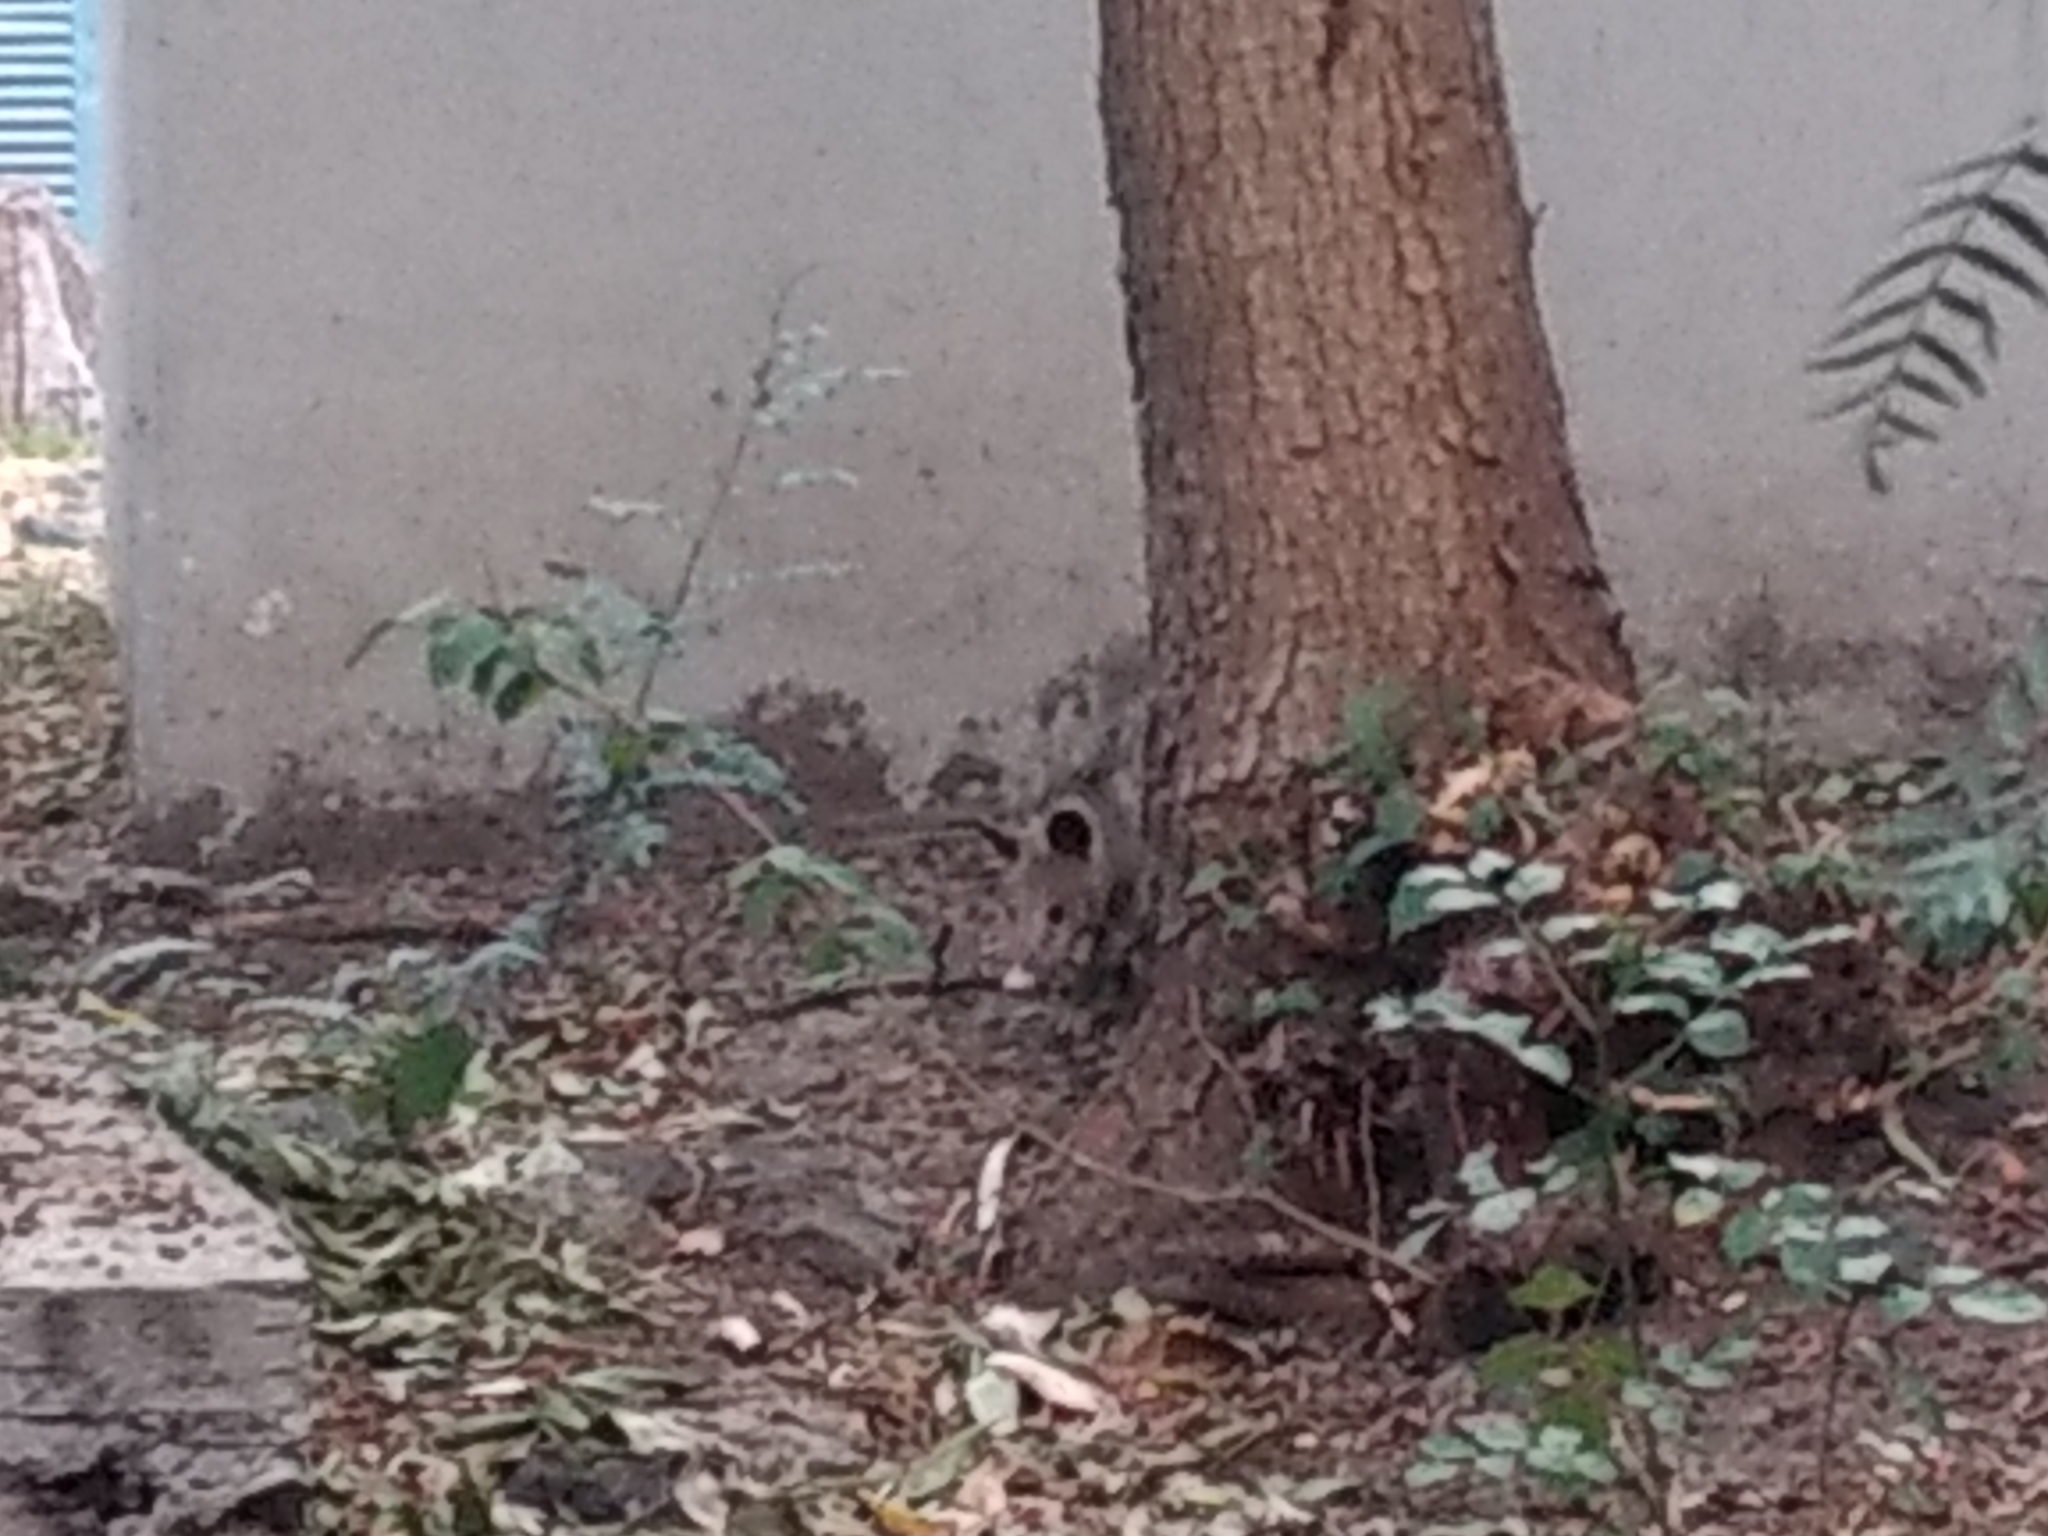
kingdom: Animalia
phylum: Chordata
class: Mammalia
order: Didelphimorphia
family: Didelphidae
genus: Didelphis
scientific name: Didelphis virginiana
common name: Virginia opossum
